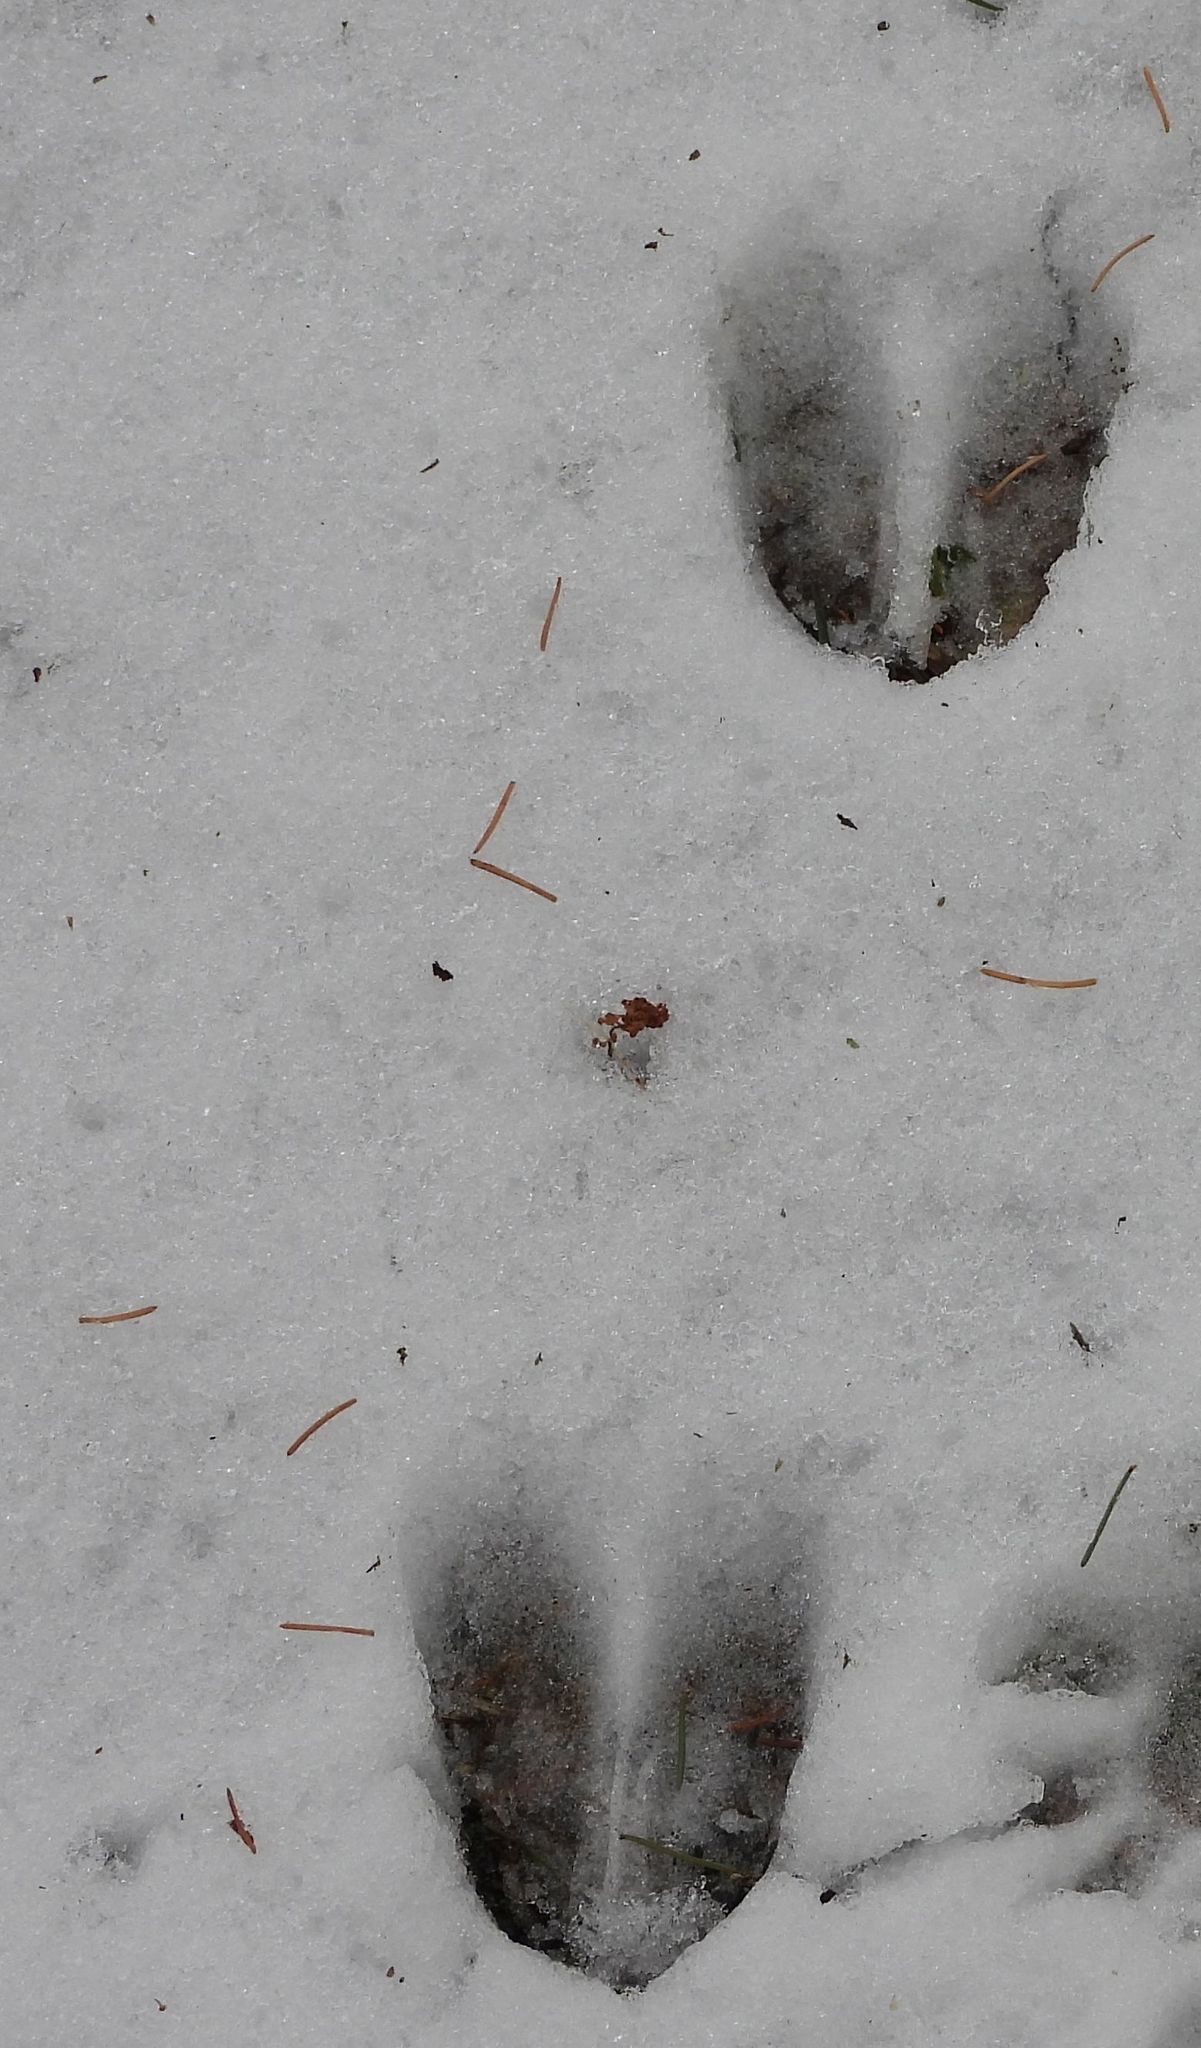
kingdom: Animalia
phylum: Chordata
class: Mammalia
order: Artiodactyla
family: Cervidae
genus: Odocoileus
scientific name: Odocoileus virginianus
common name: White-tailed deer
